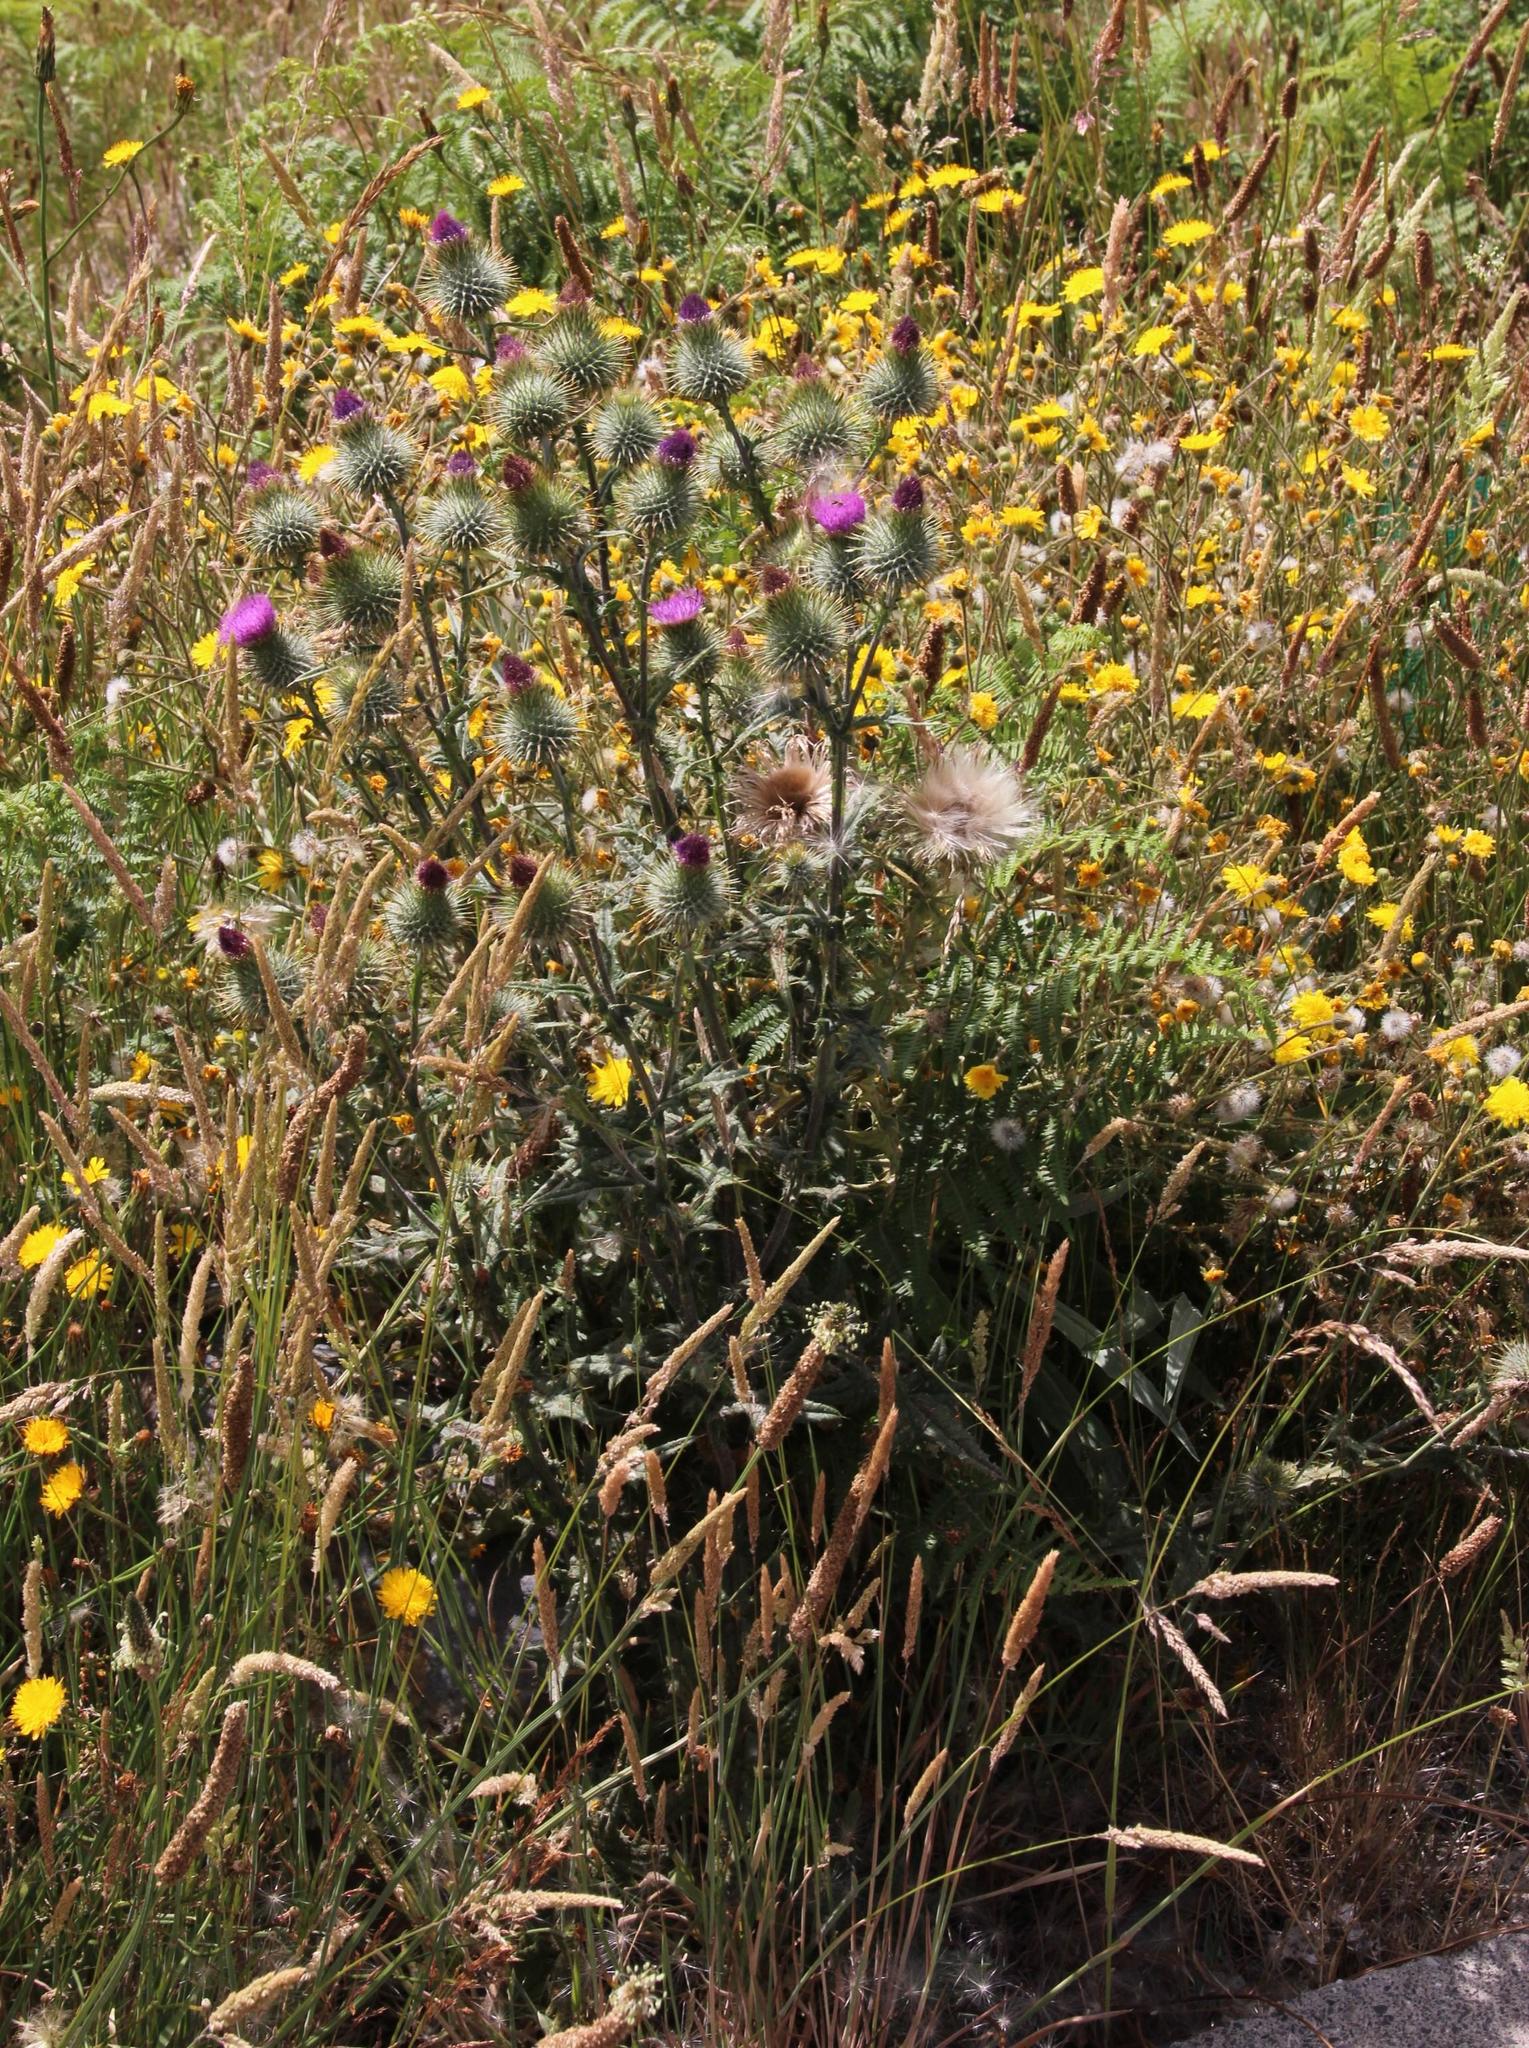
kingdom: Plantae
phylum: Tracheophyta
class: Magnoliopsida
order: Asterales
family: Asteraceae
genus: Cirsium
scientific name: Cirsium vulgare
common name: Bull thistle
